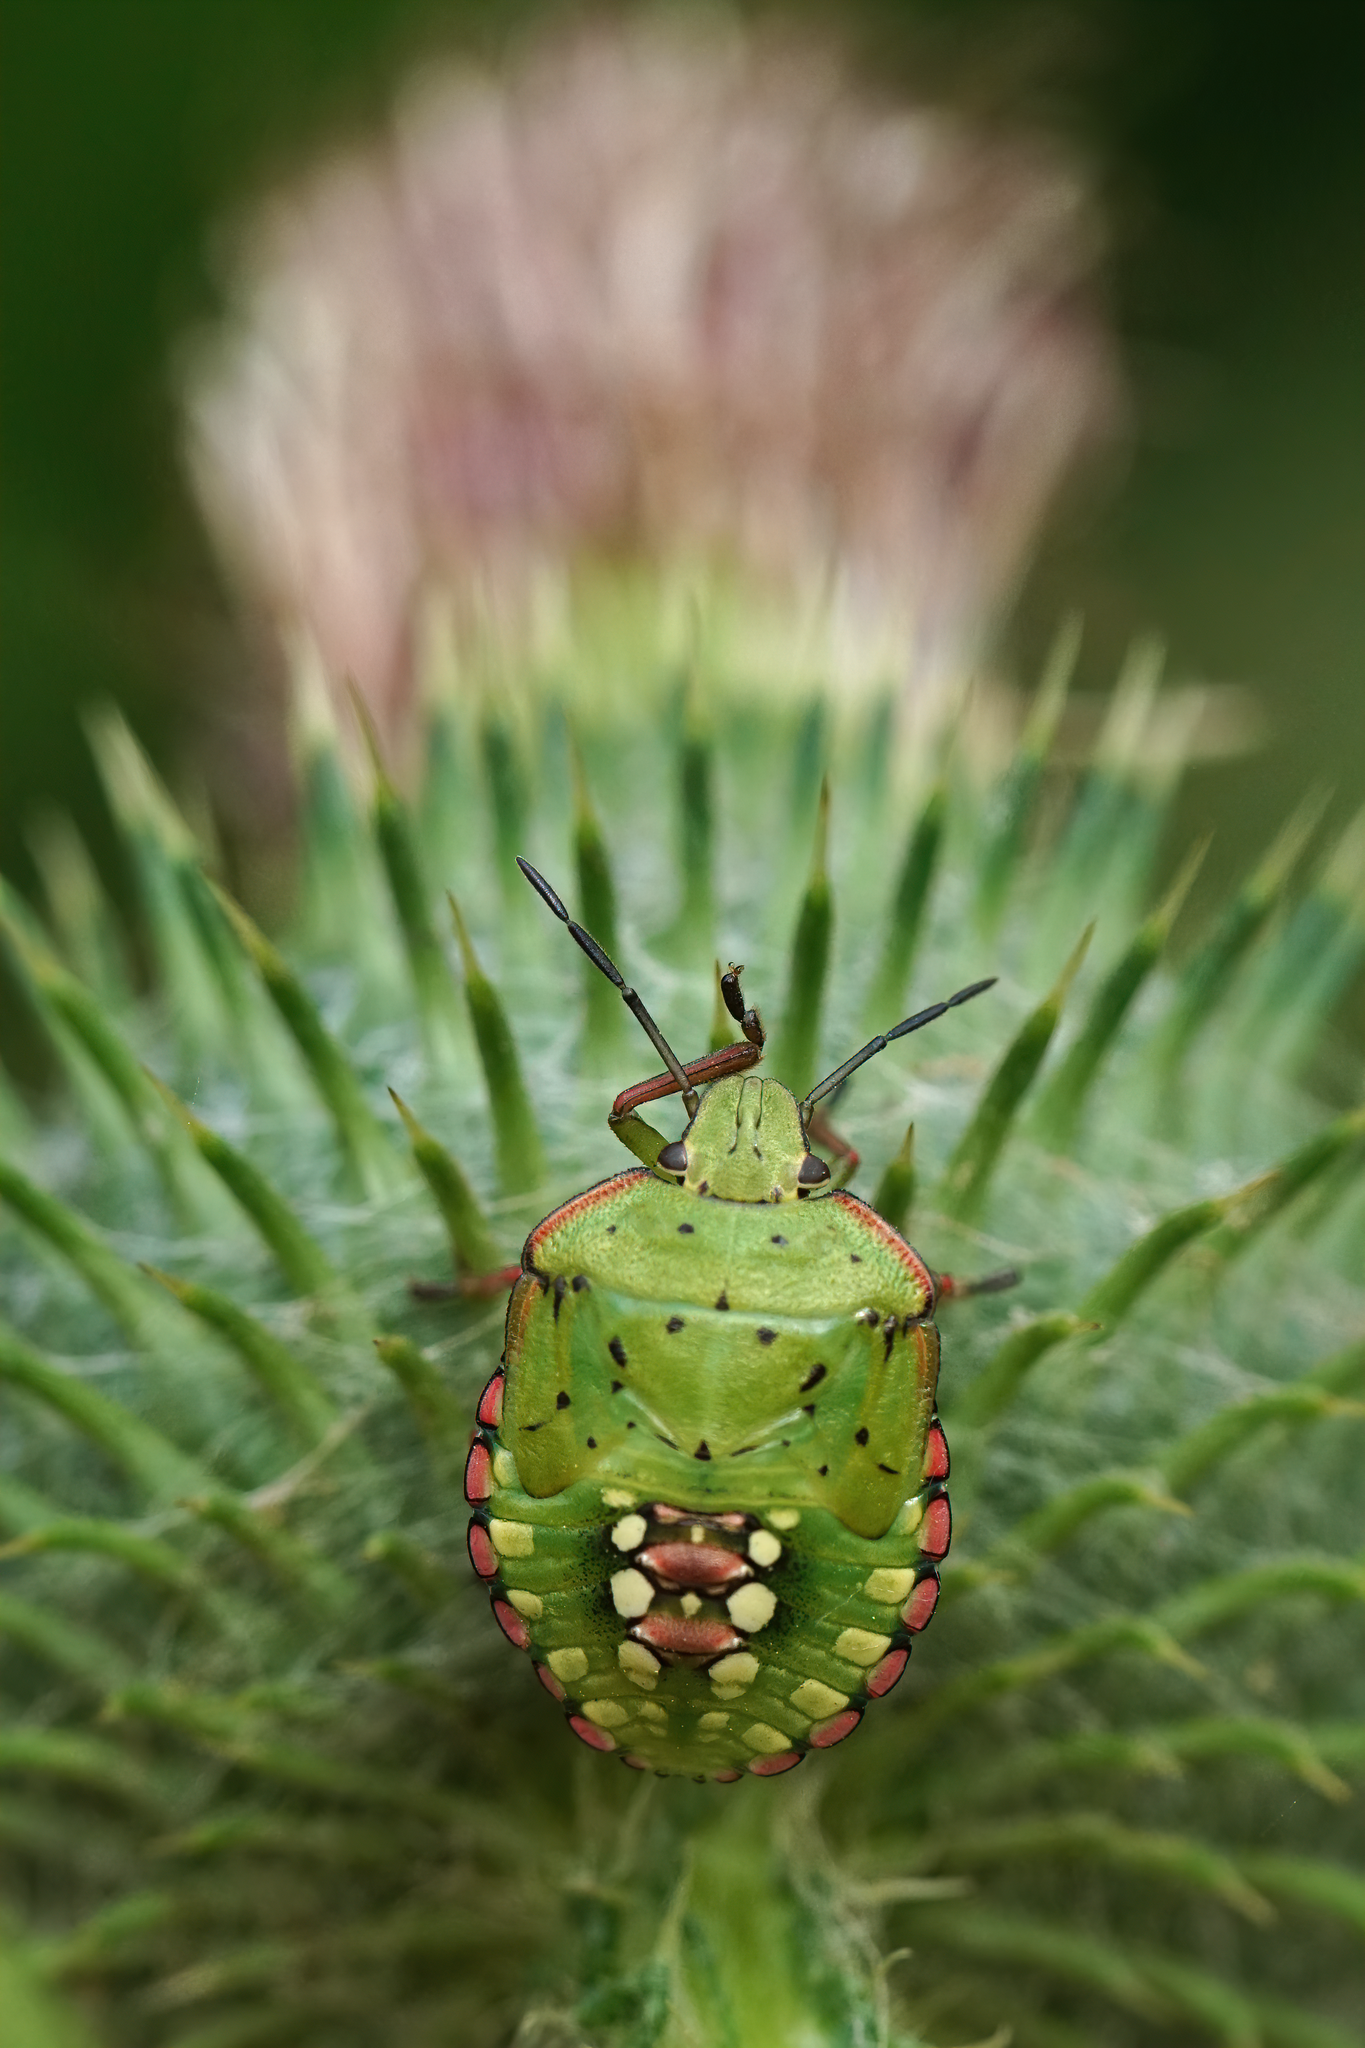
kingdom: Animalia
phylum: Arthropoda
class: Insecta
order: Hemiptera
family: Pentatomidae
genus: Nezara
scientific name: Nezara viridula
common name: Southern green stink bug
